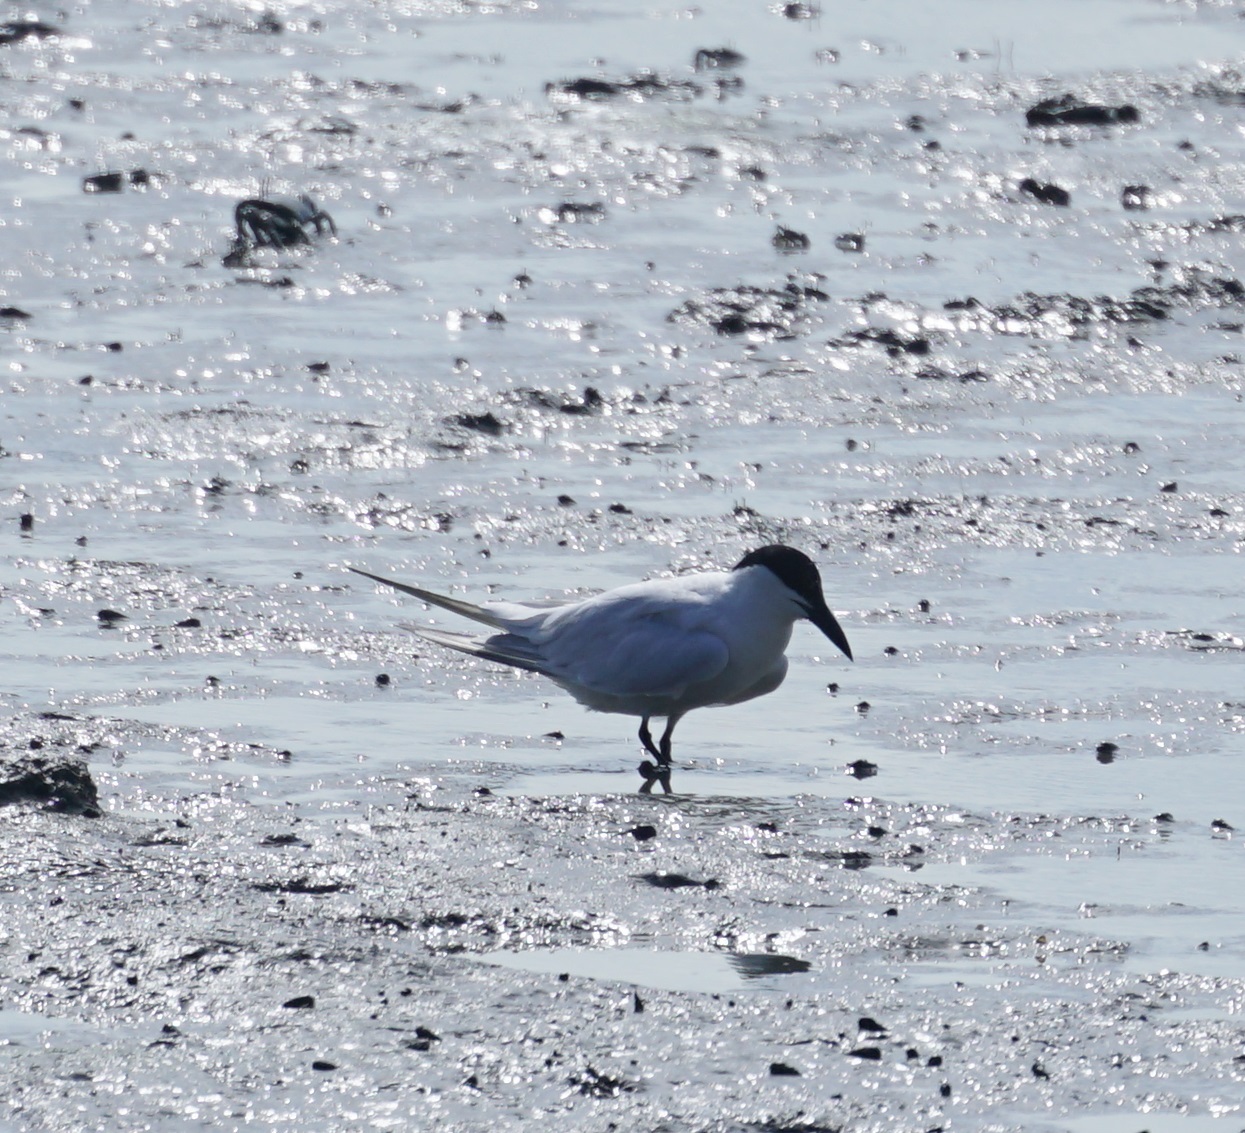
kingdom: Animalia
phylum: Chordata
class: Aves
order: Charadriiformes
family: Laridae
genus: Gelochelidon
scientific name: Gelochelidon macrotarsa
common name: Australian tern
